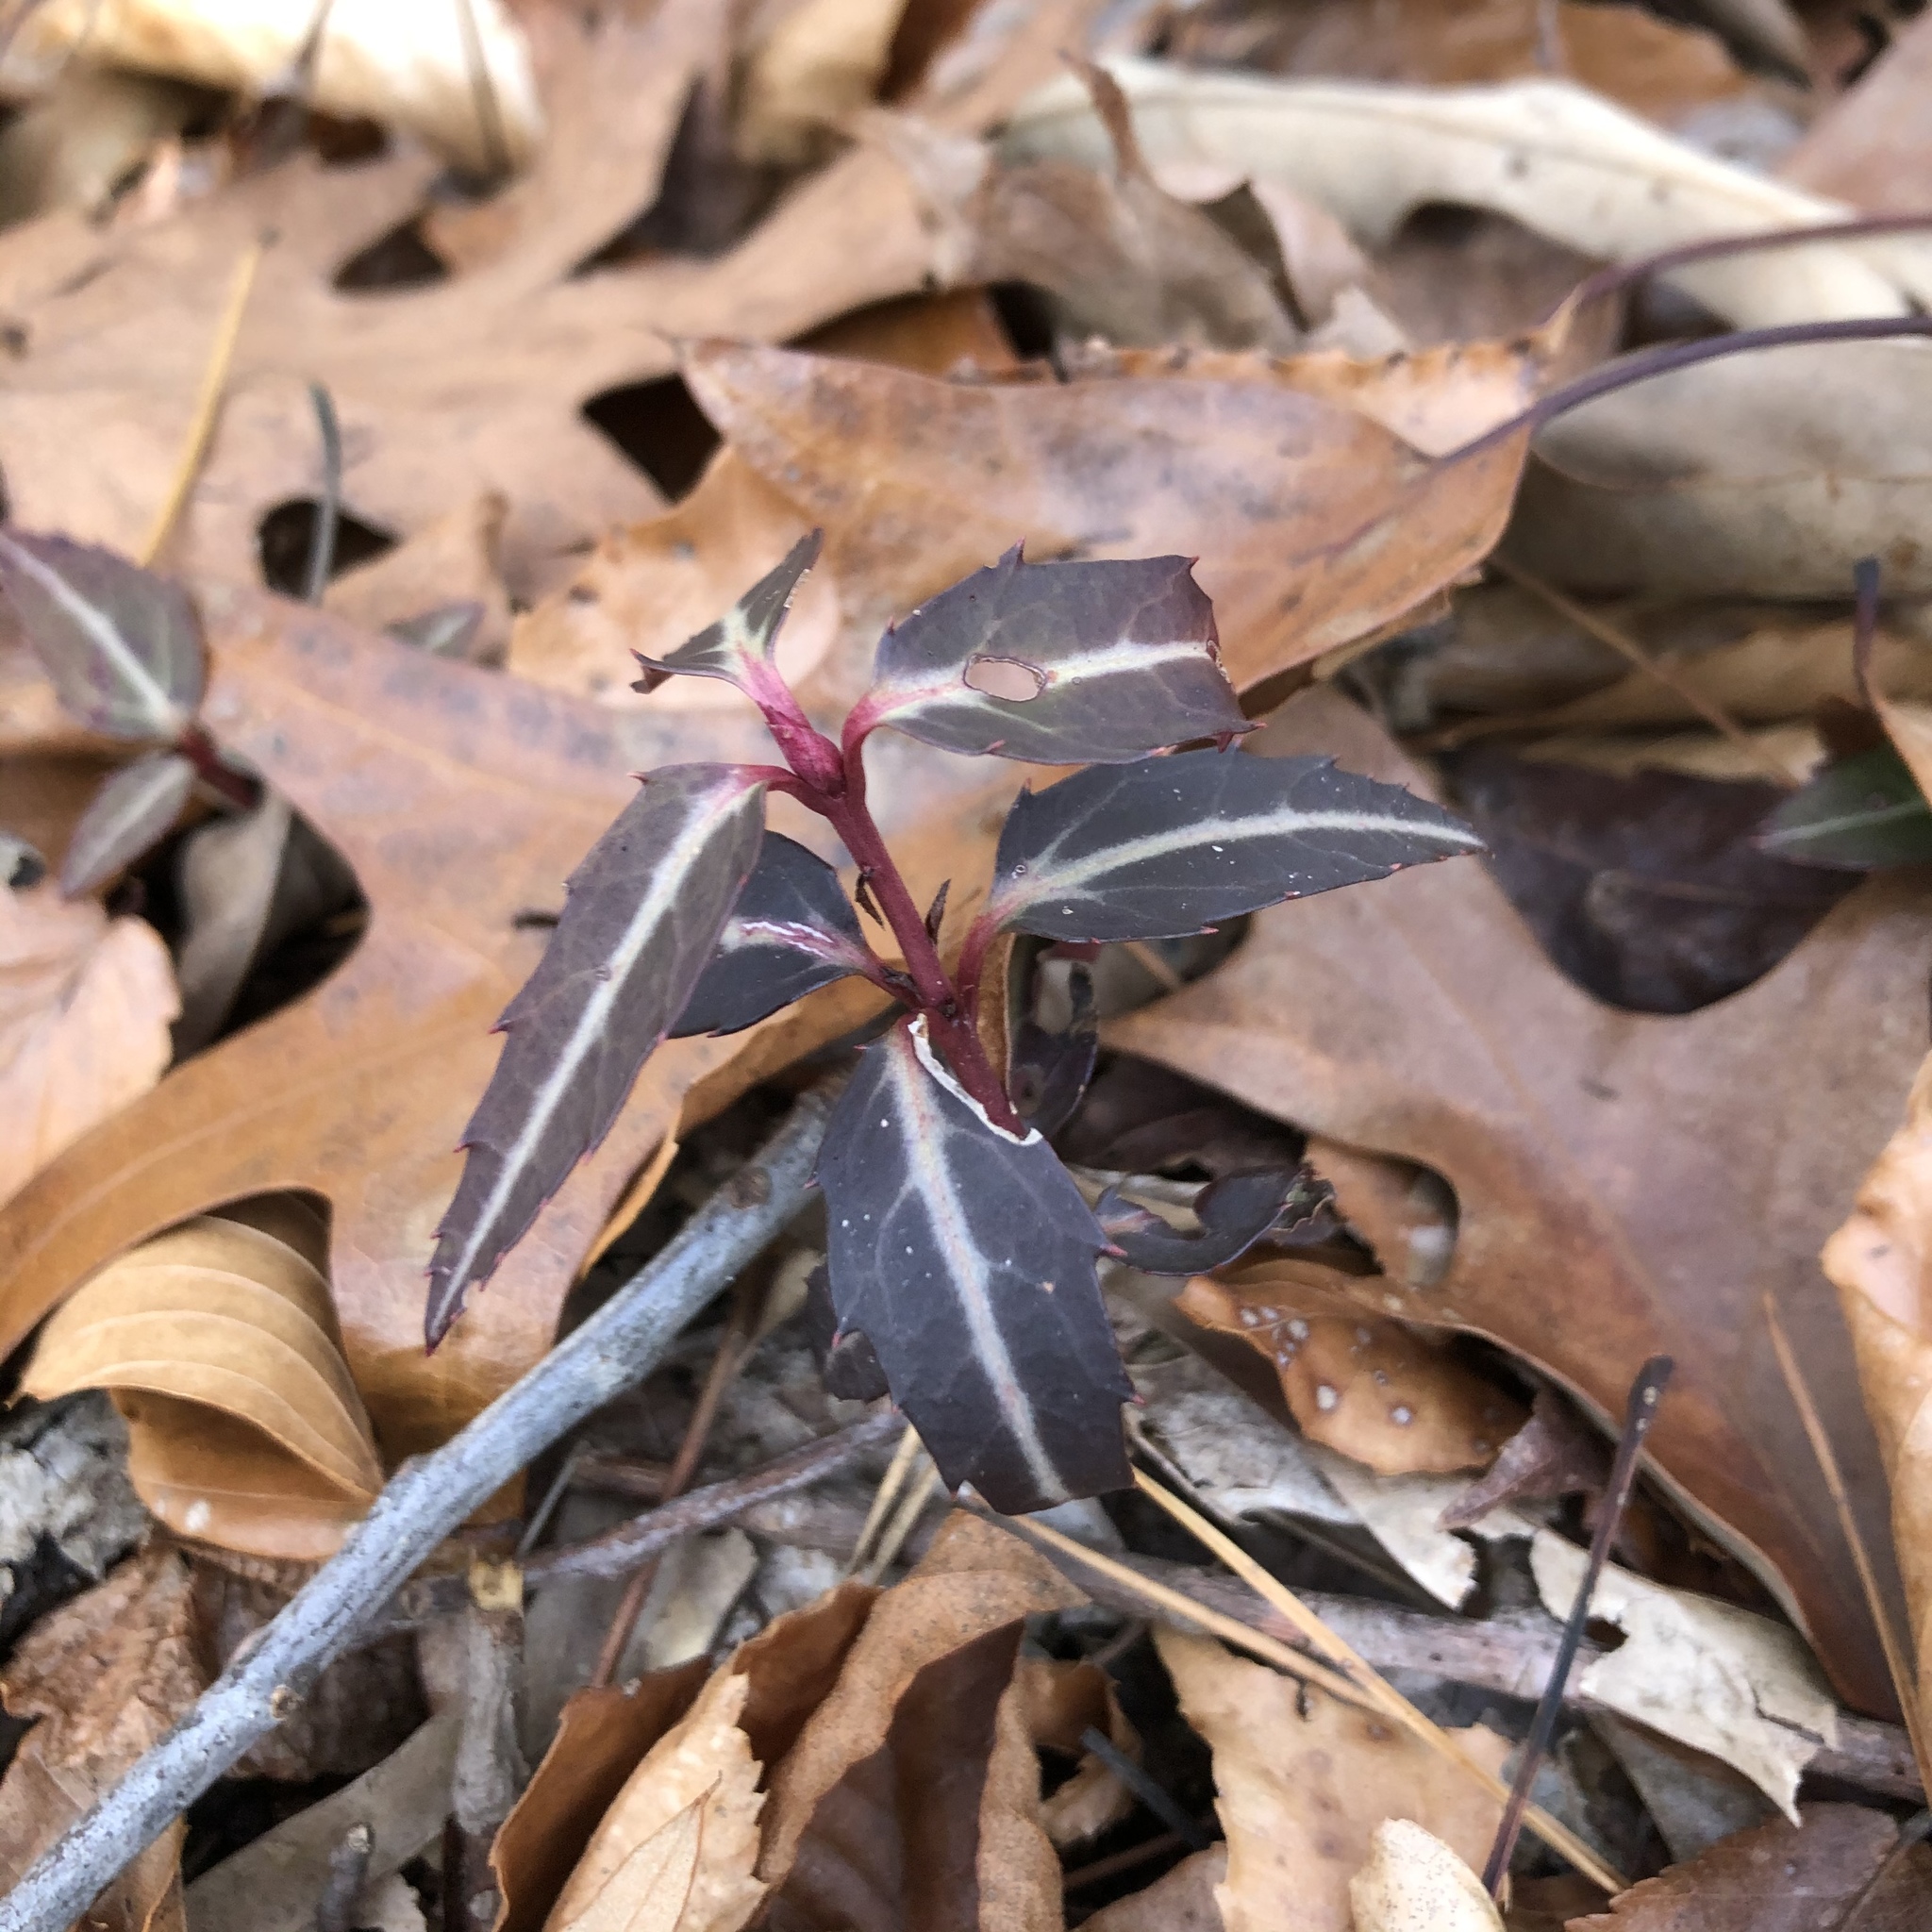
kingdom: Plantae
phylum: Tracheophyta
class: Magnoliopsida
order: Ericales
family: Ericaceae
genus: Chimaphila
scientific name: Chimaphila maculata
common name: Spotted pipsissewa
